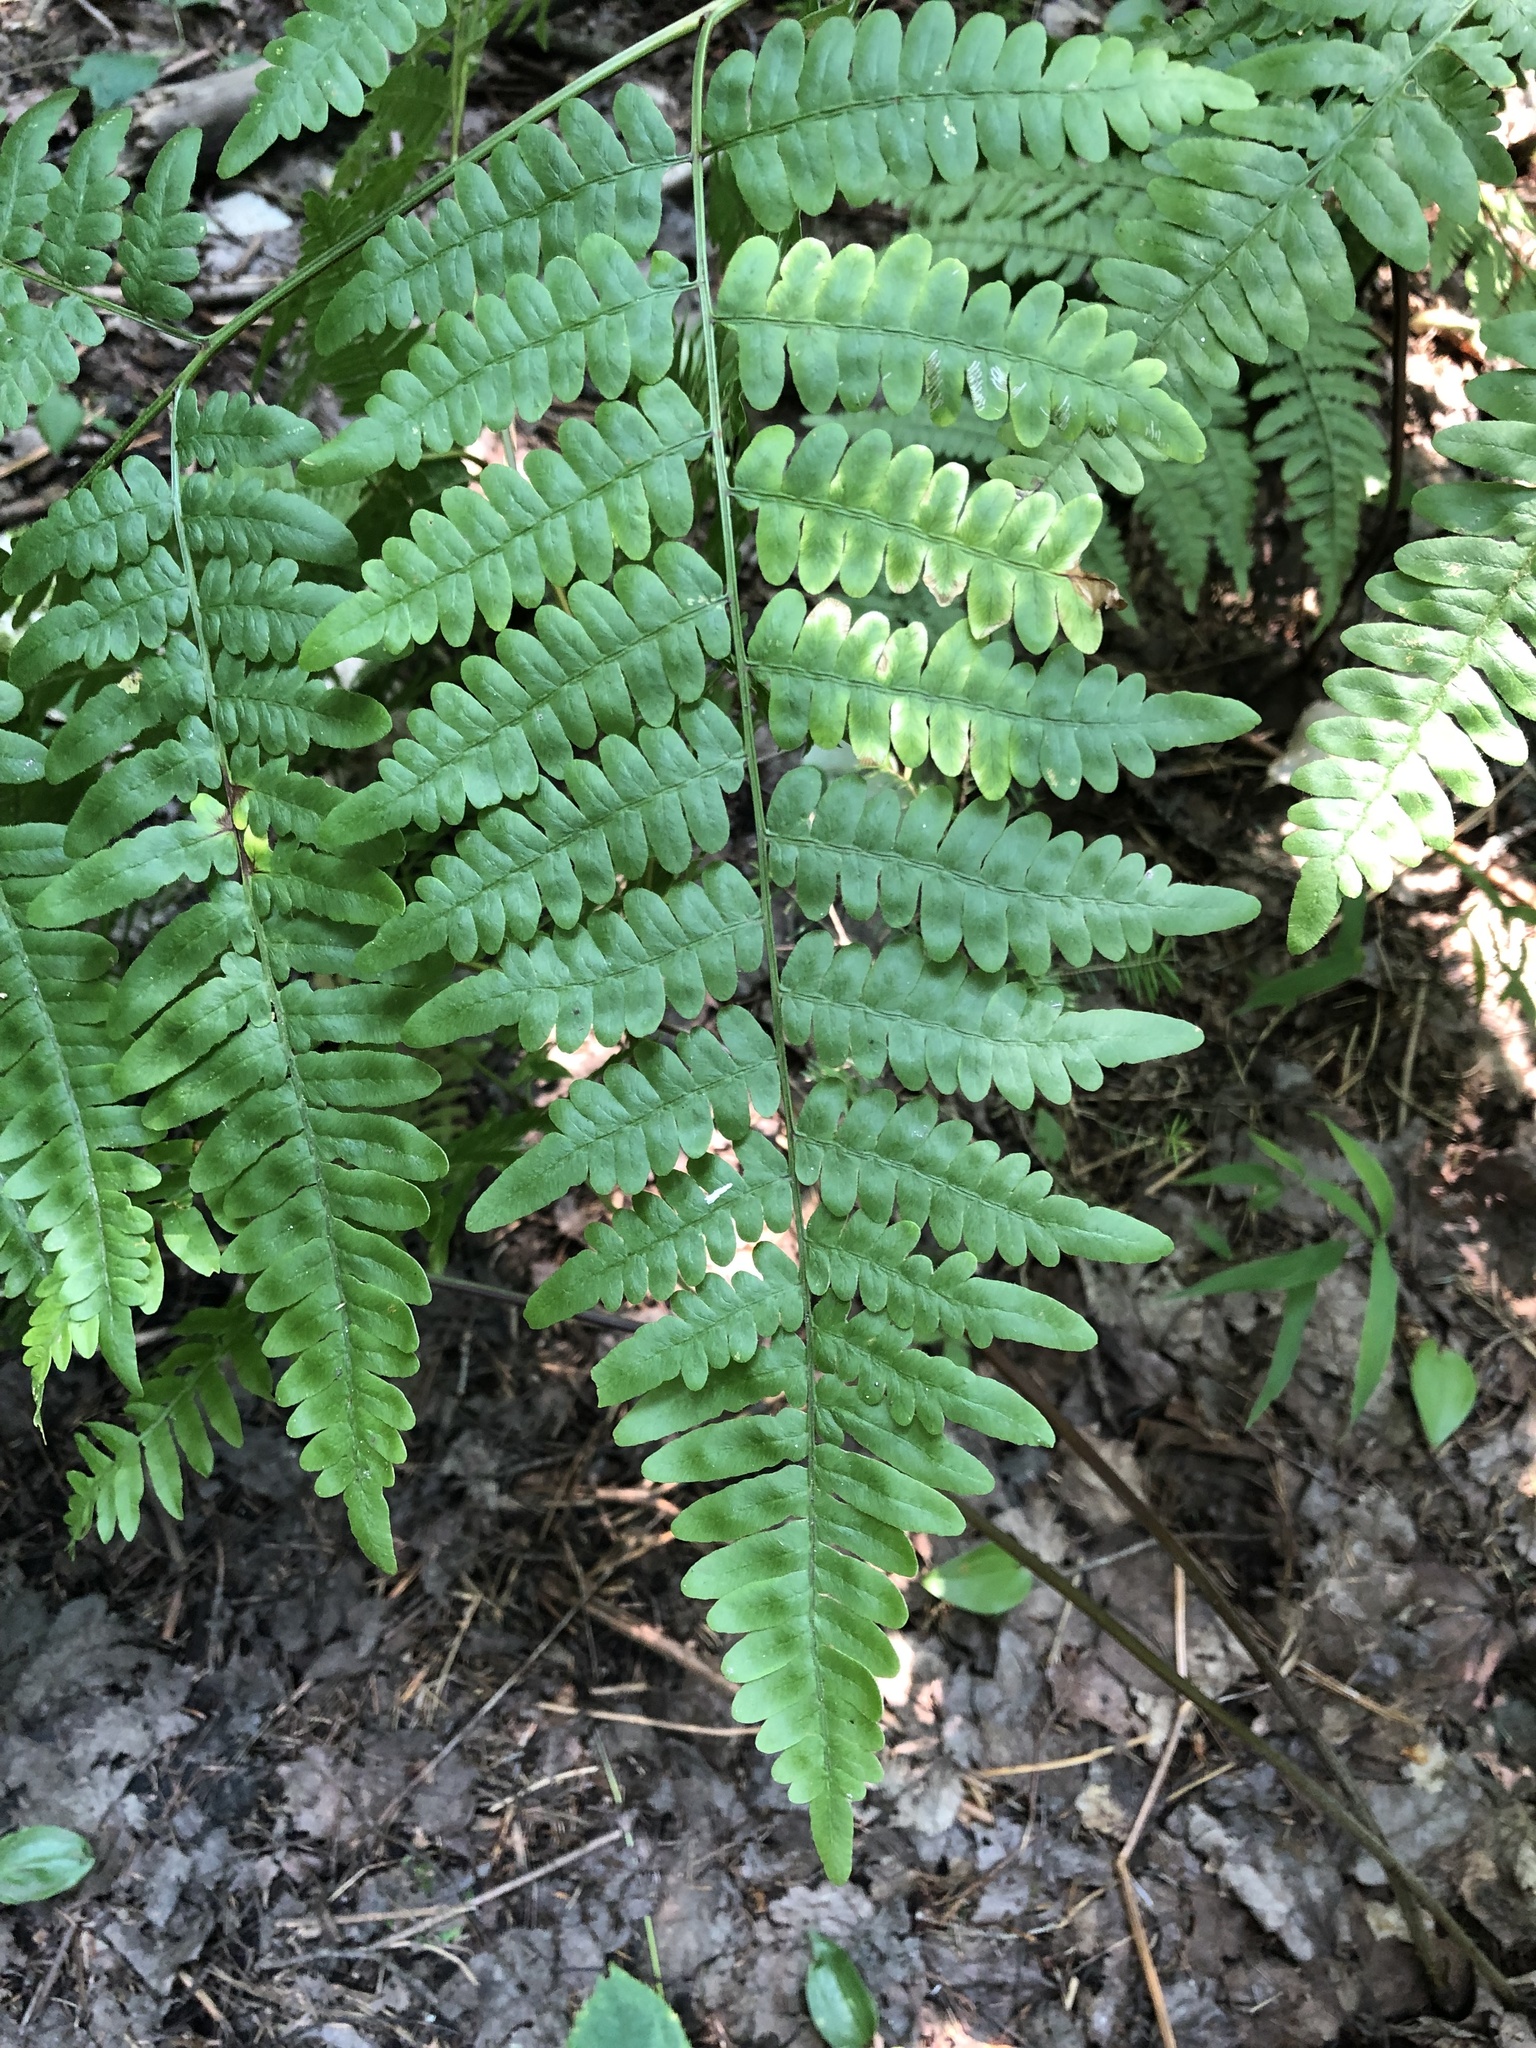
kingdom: Plantae
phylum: Tracheophyta
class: Polypodiopsida
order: Polypodiales
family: Dennstaedtiaceae
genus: Pteridium
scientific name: Pteridium aquilinum
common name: Bracken
